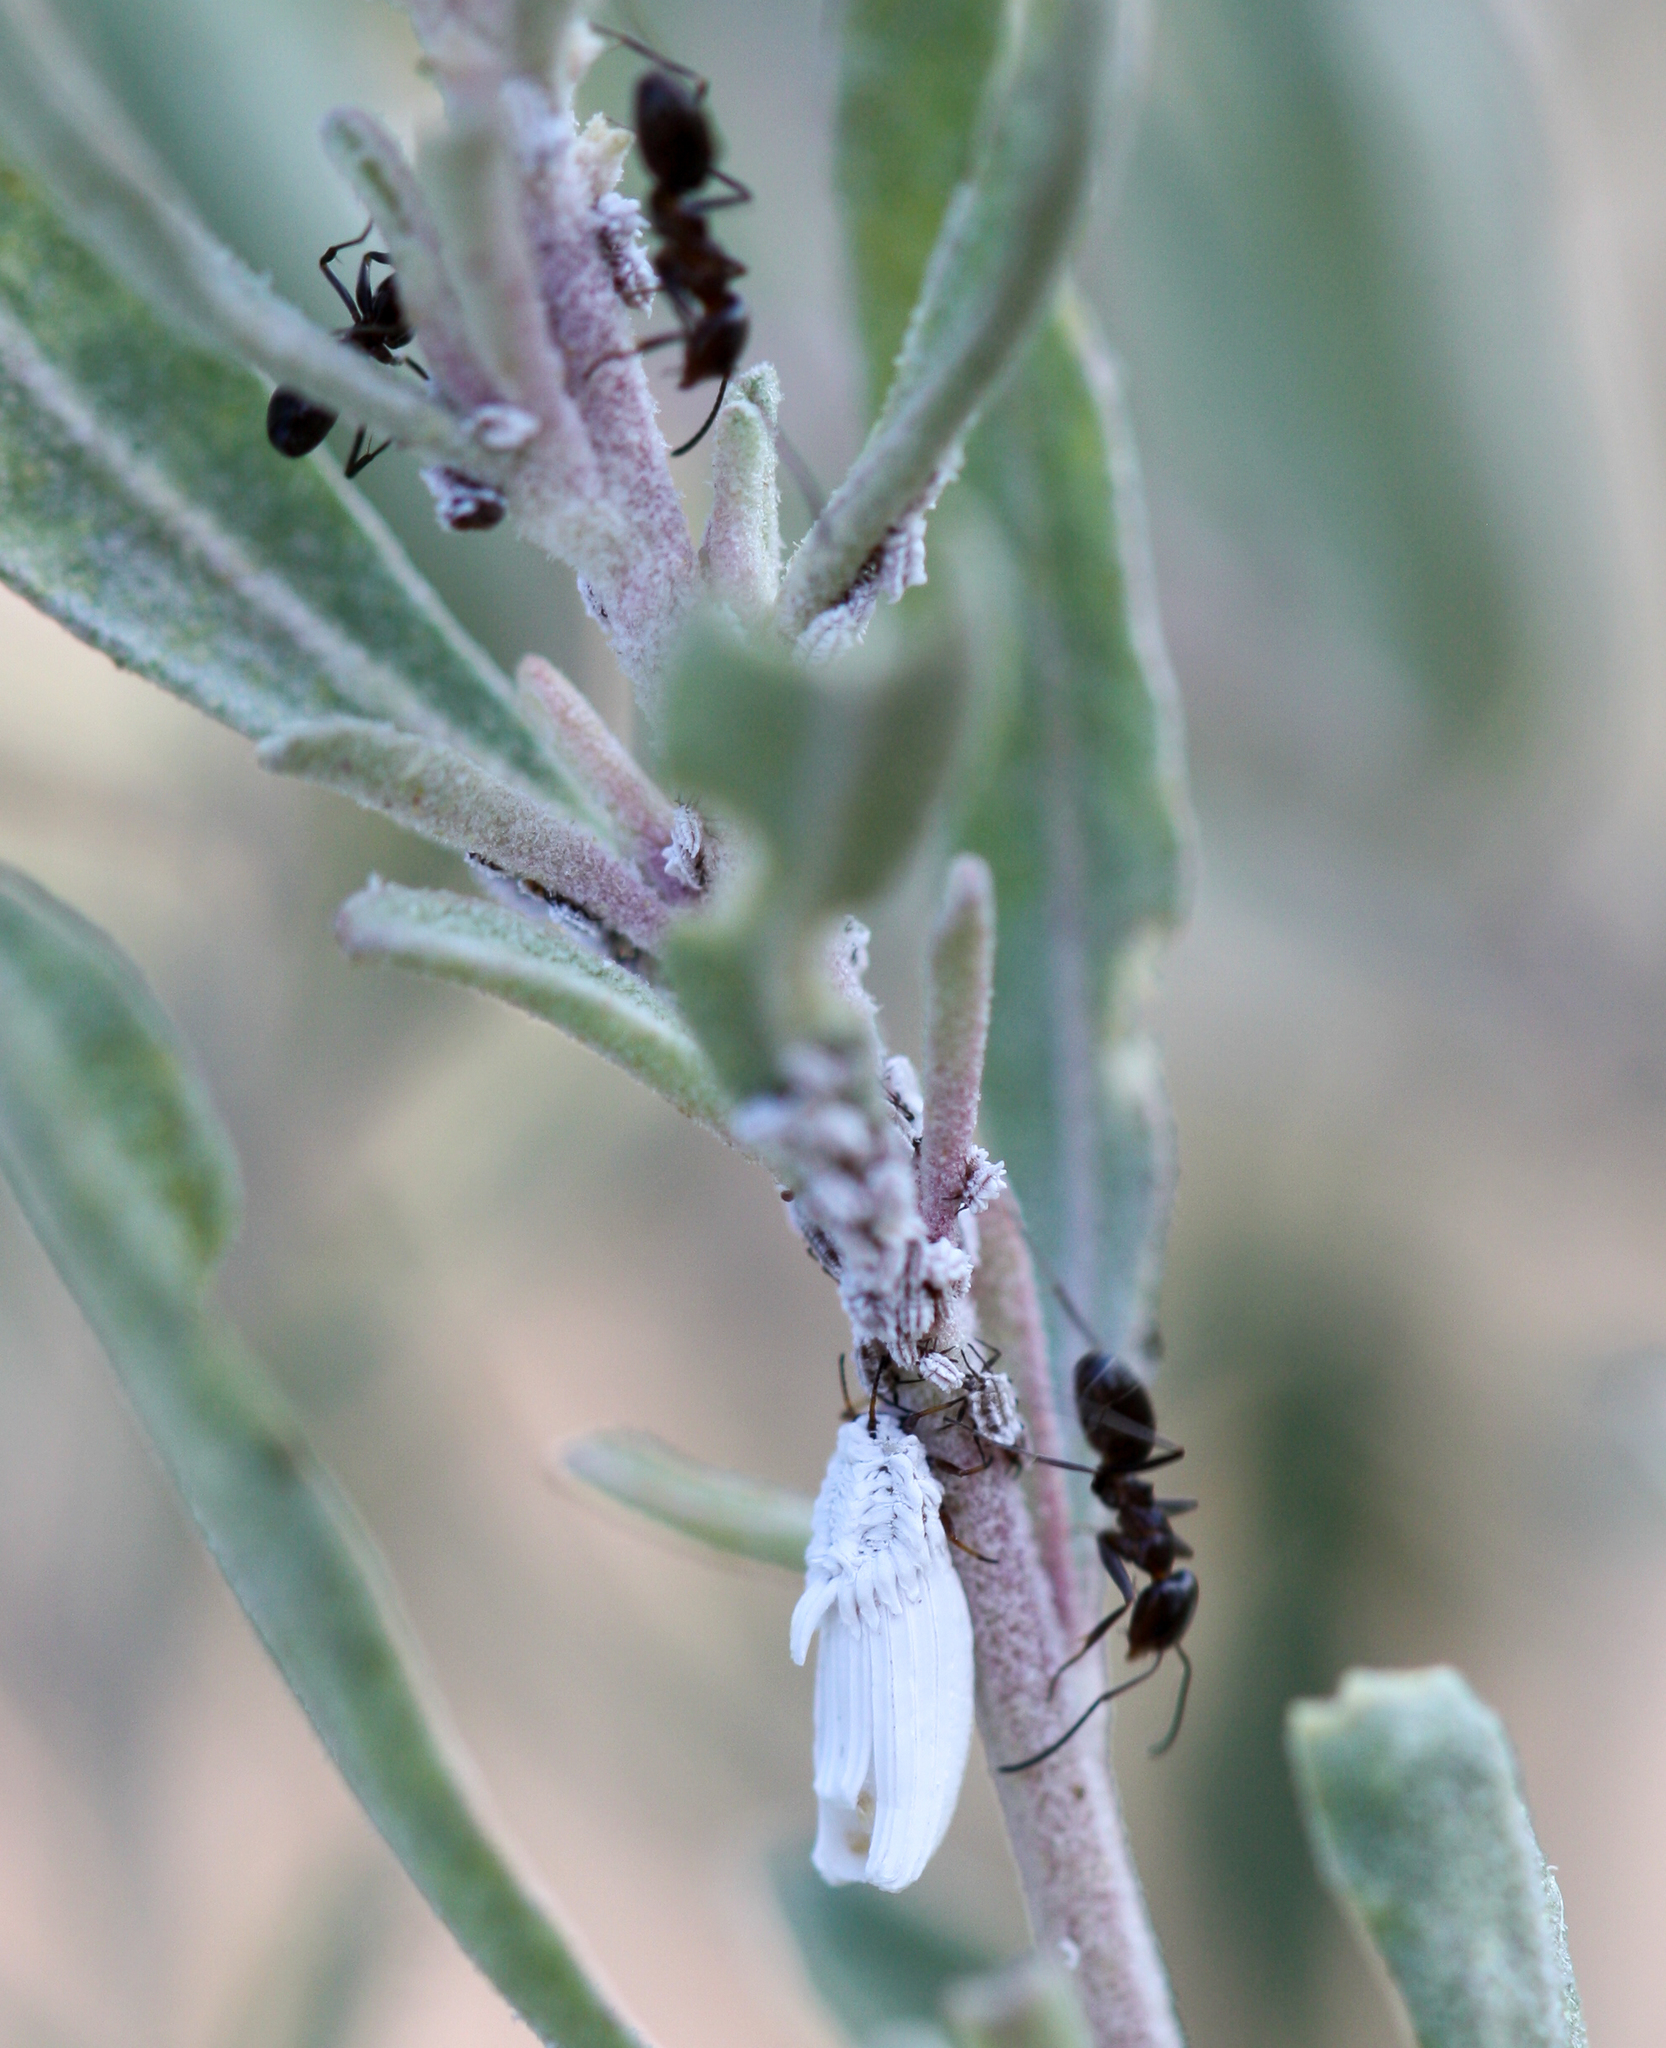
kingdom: Animalia
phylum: Arthropoda
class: Insecta
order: Hymenoptera
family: Formicidae
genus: Dorymyrmex
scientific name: Dorymyrmex
